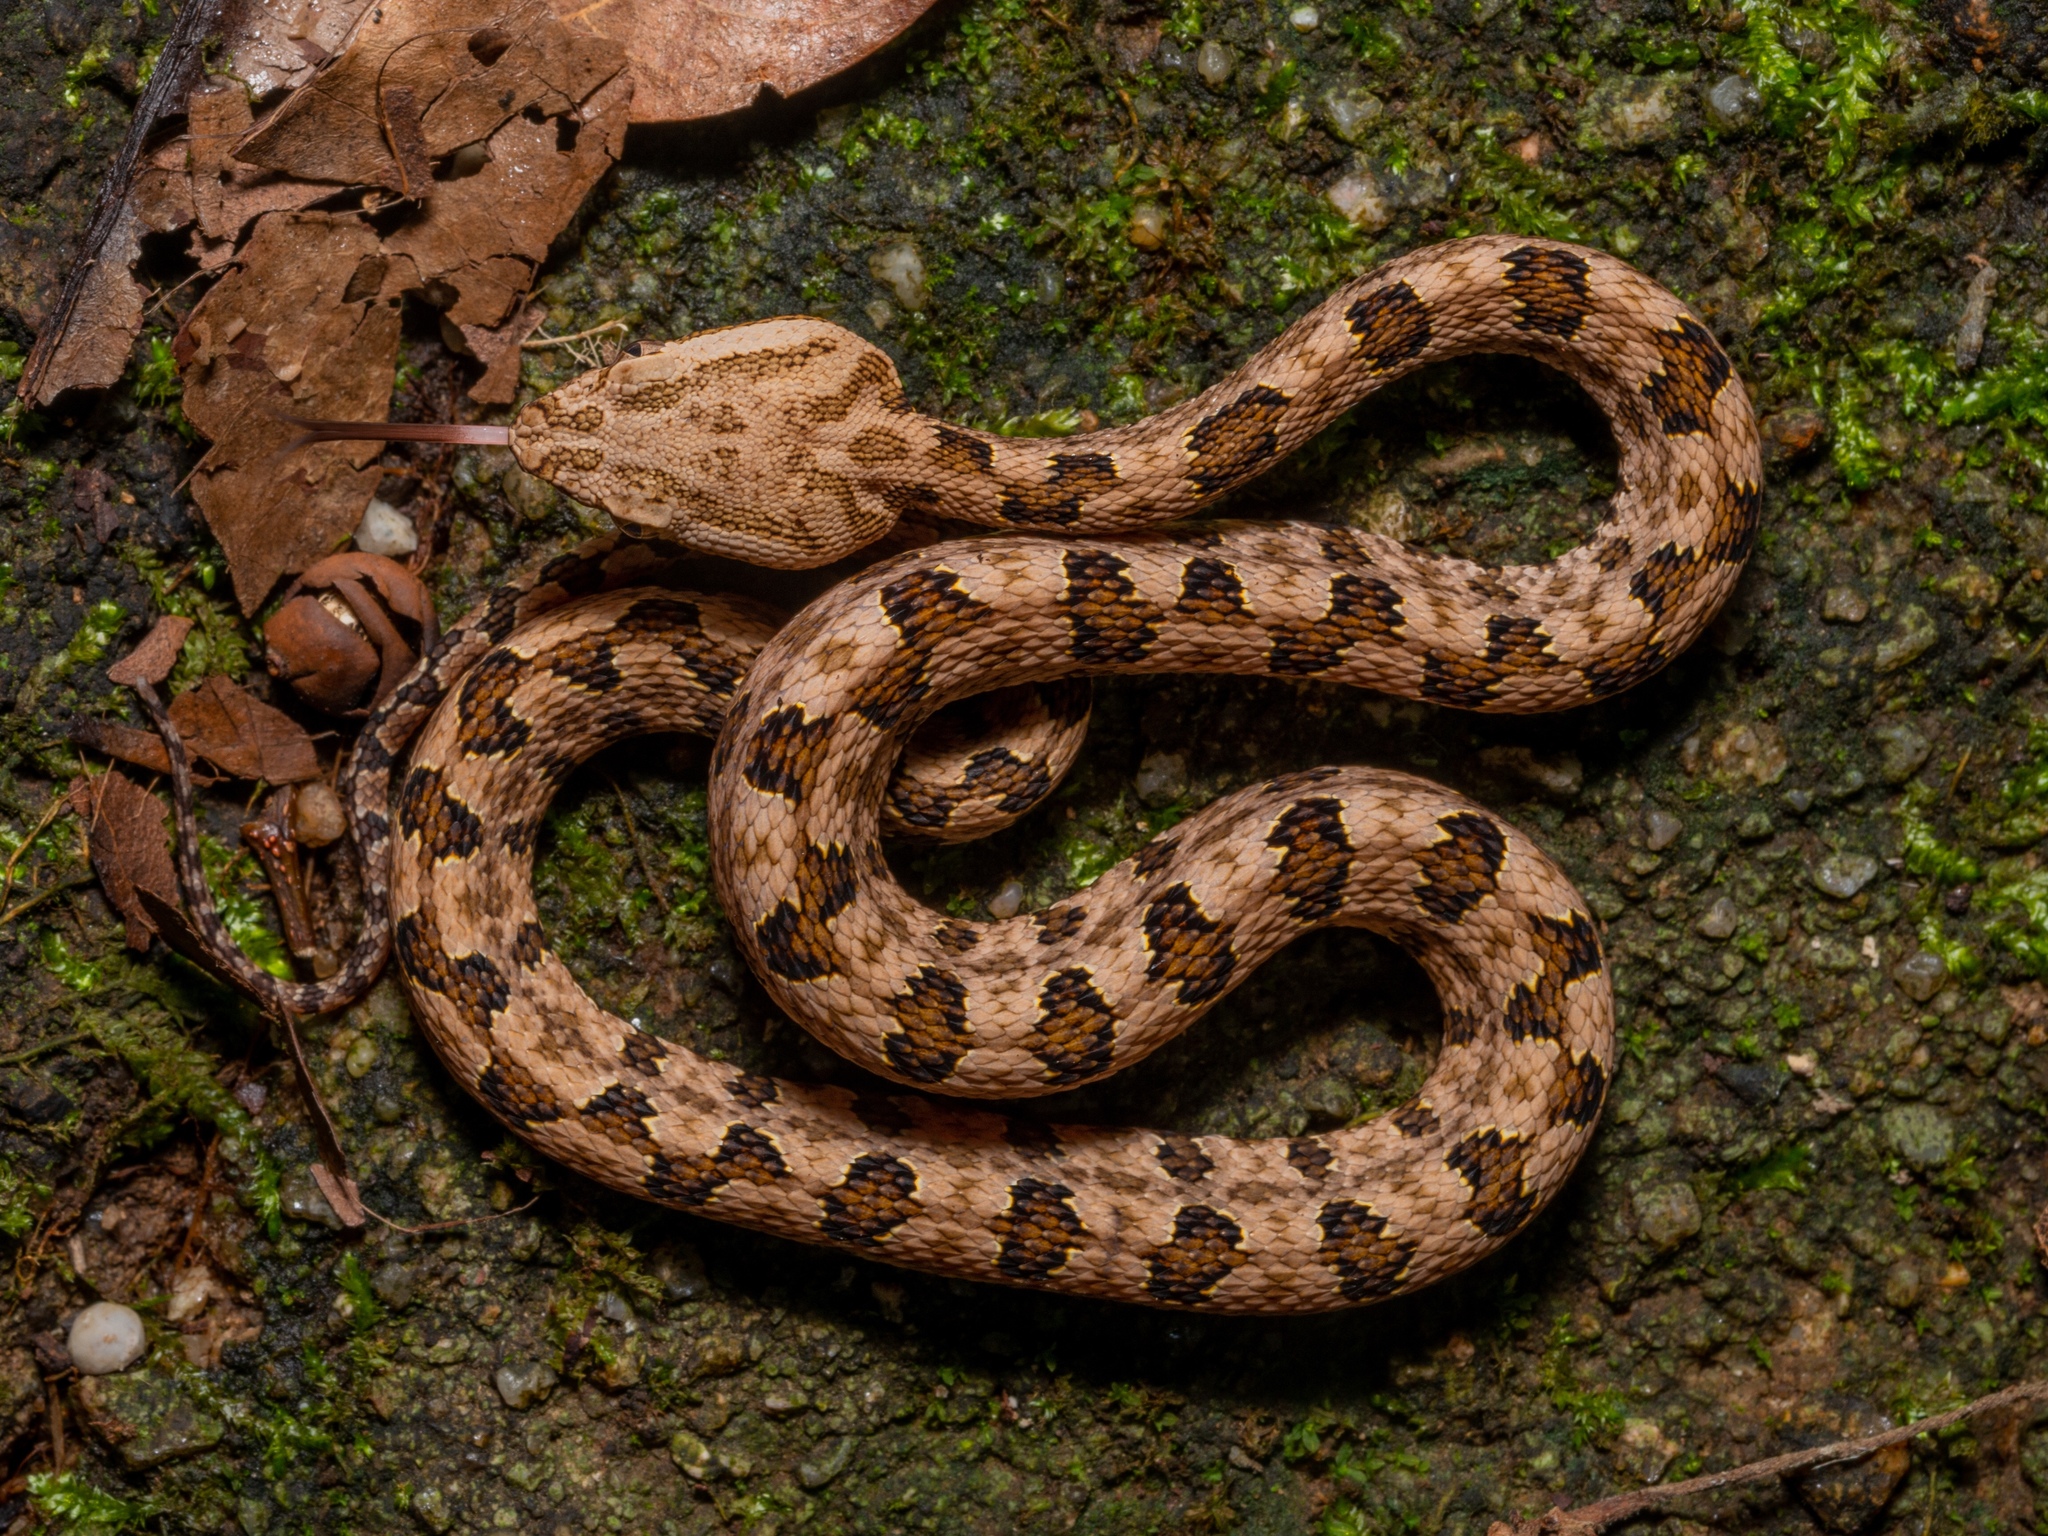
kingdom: Animalia
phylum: Chordata
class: Squamata
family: Viperidae
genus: Protobothrops
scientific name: Protobothrops mucrosquamatus
